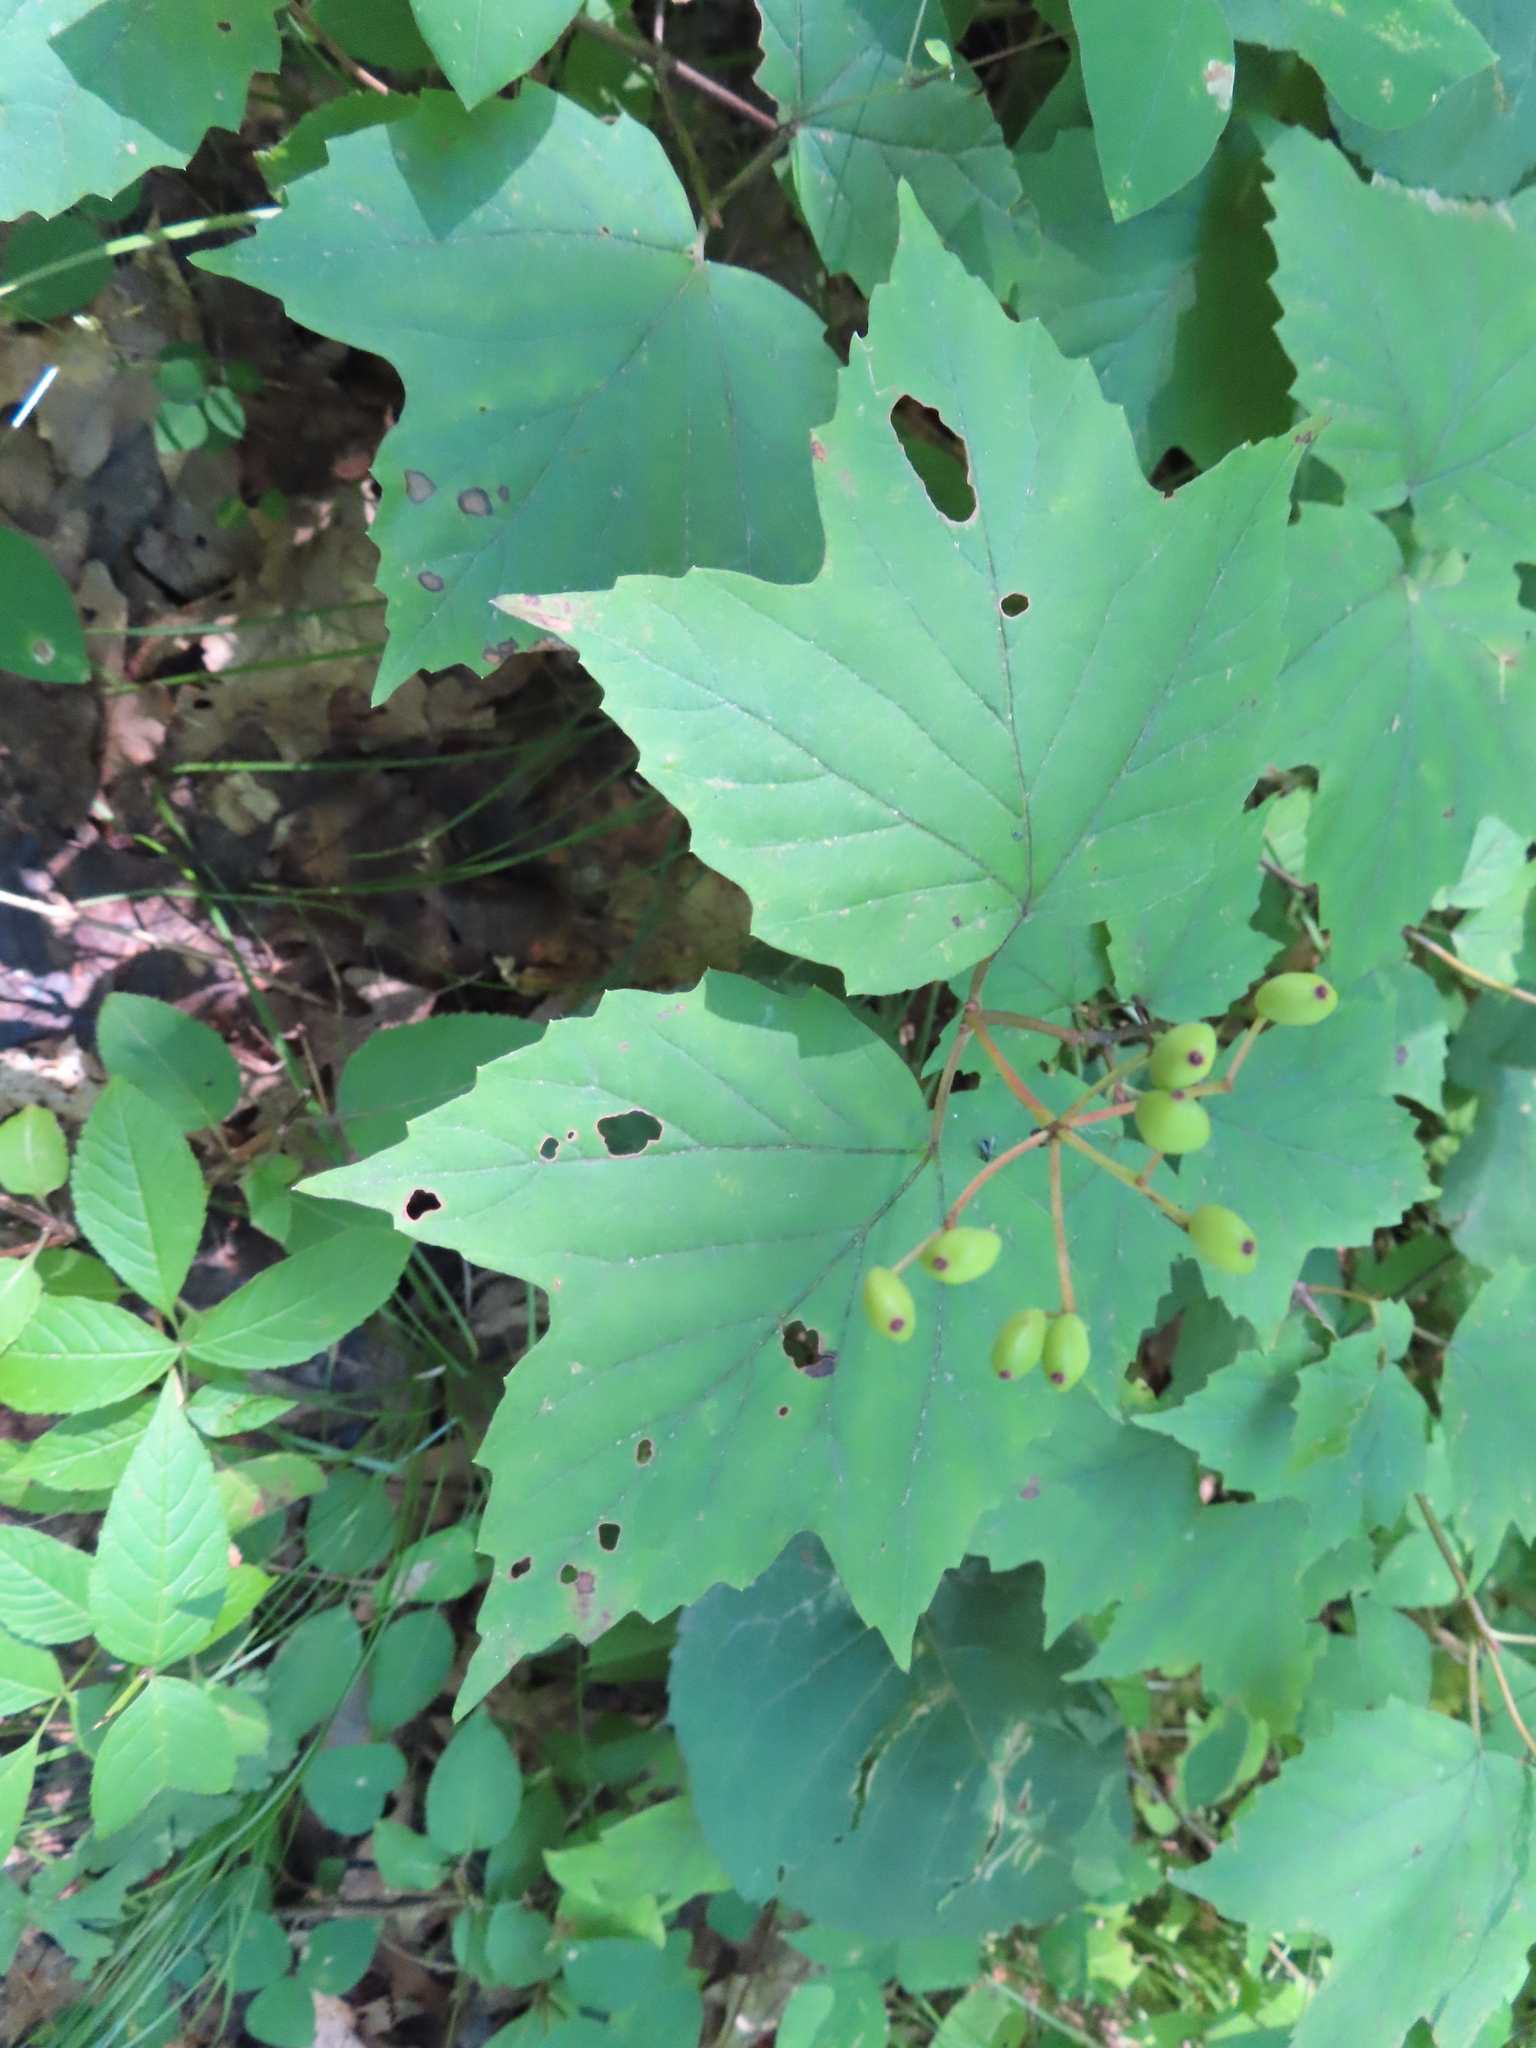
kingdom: Plantae
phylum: Tracheophyta
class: Magnoliopsida
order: Dipsacales
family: Viburnaceae
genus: Viburnum
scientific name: Viburnum acerifolium
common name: Dockmackie
